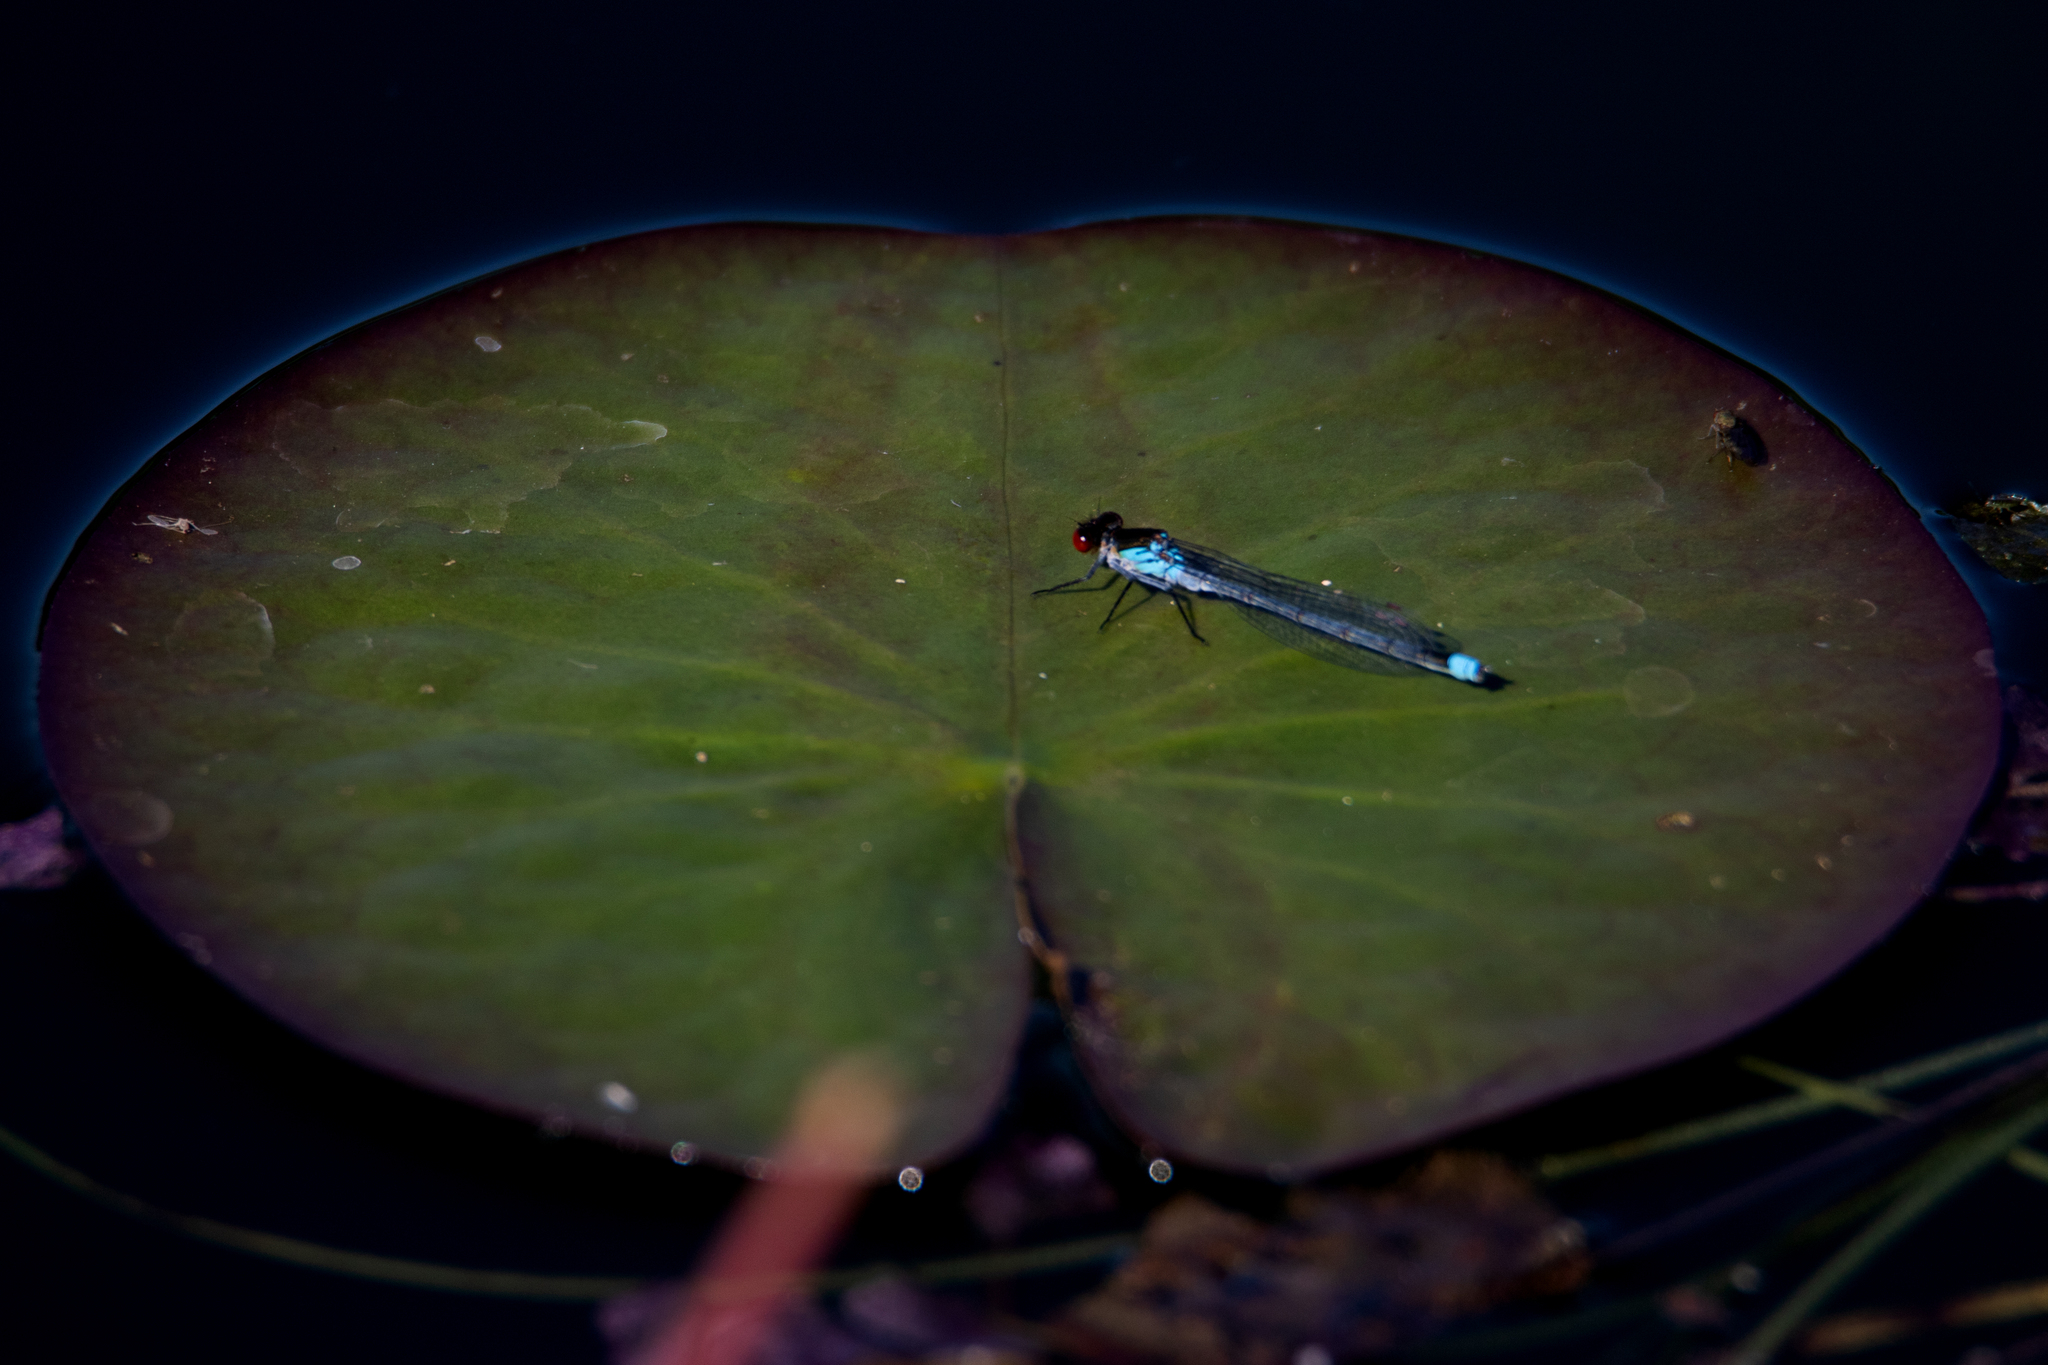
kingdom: Animalia
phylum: Arthropoda
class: Insecta
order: Odonata
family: Coenagrionidae
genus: Erythromma
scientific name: Erythromma najas
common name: Red-eyed damselfly
